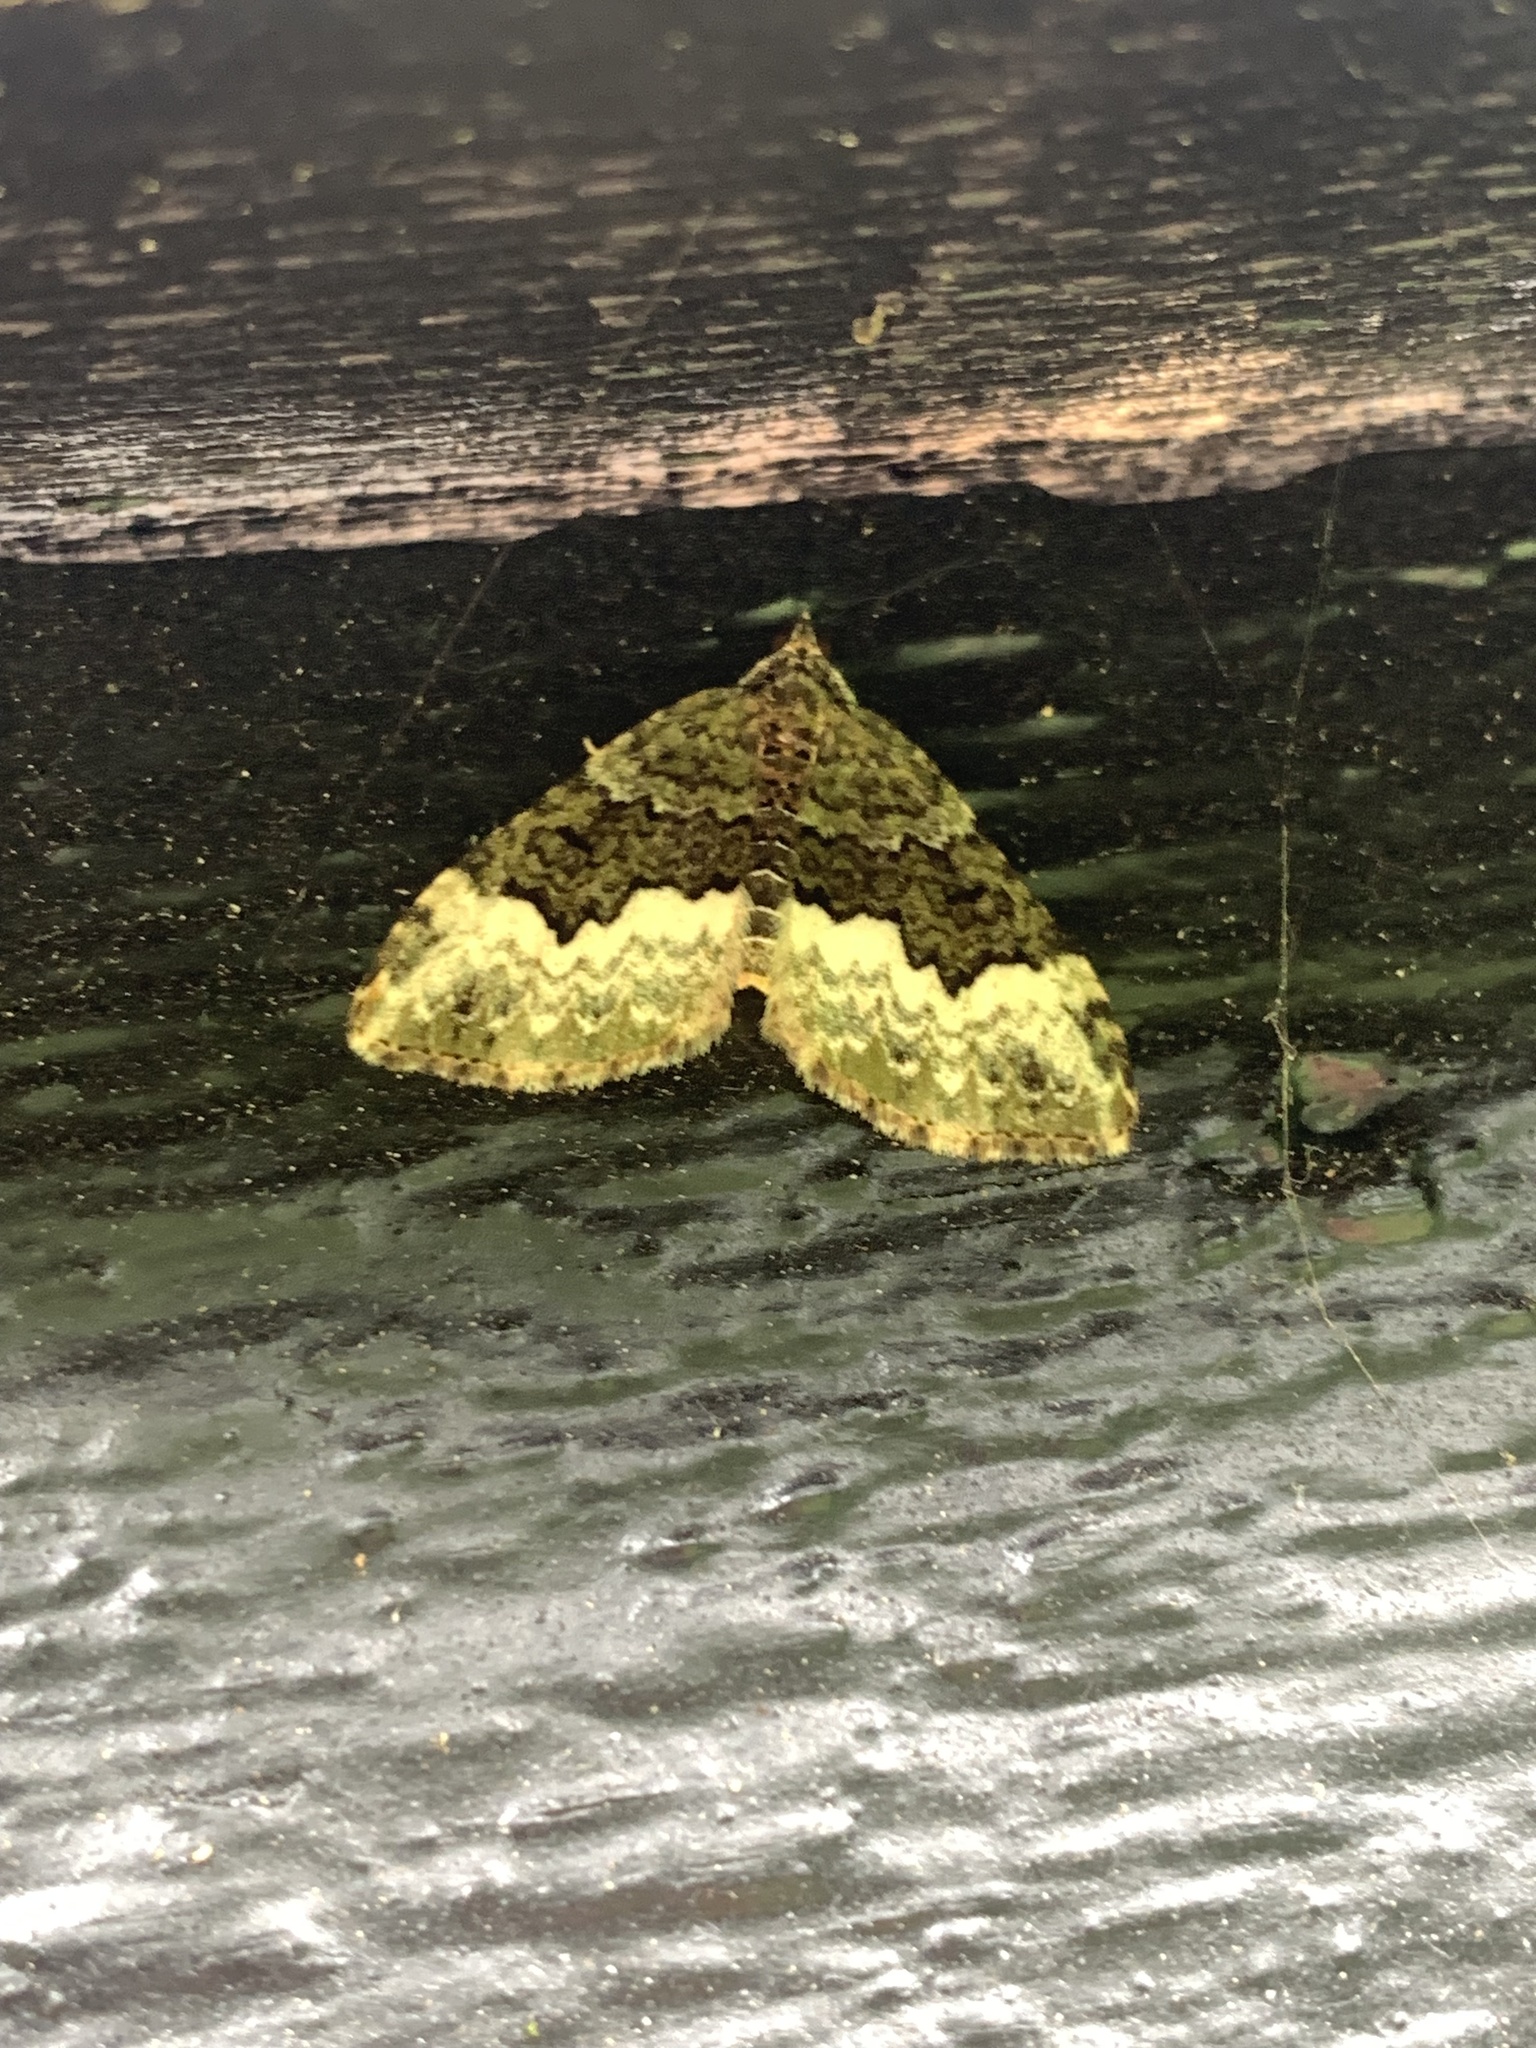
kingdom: Animalia
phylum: Arthropoda
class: Insecta
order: Lepidoptera
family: Geometridae
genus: Euphyia
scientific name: Euphyia biangulata
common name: Cloaked carpet
